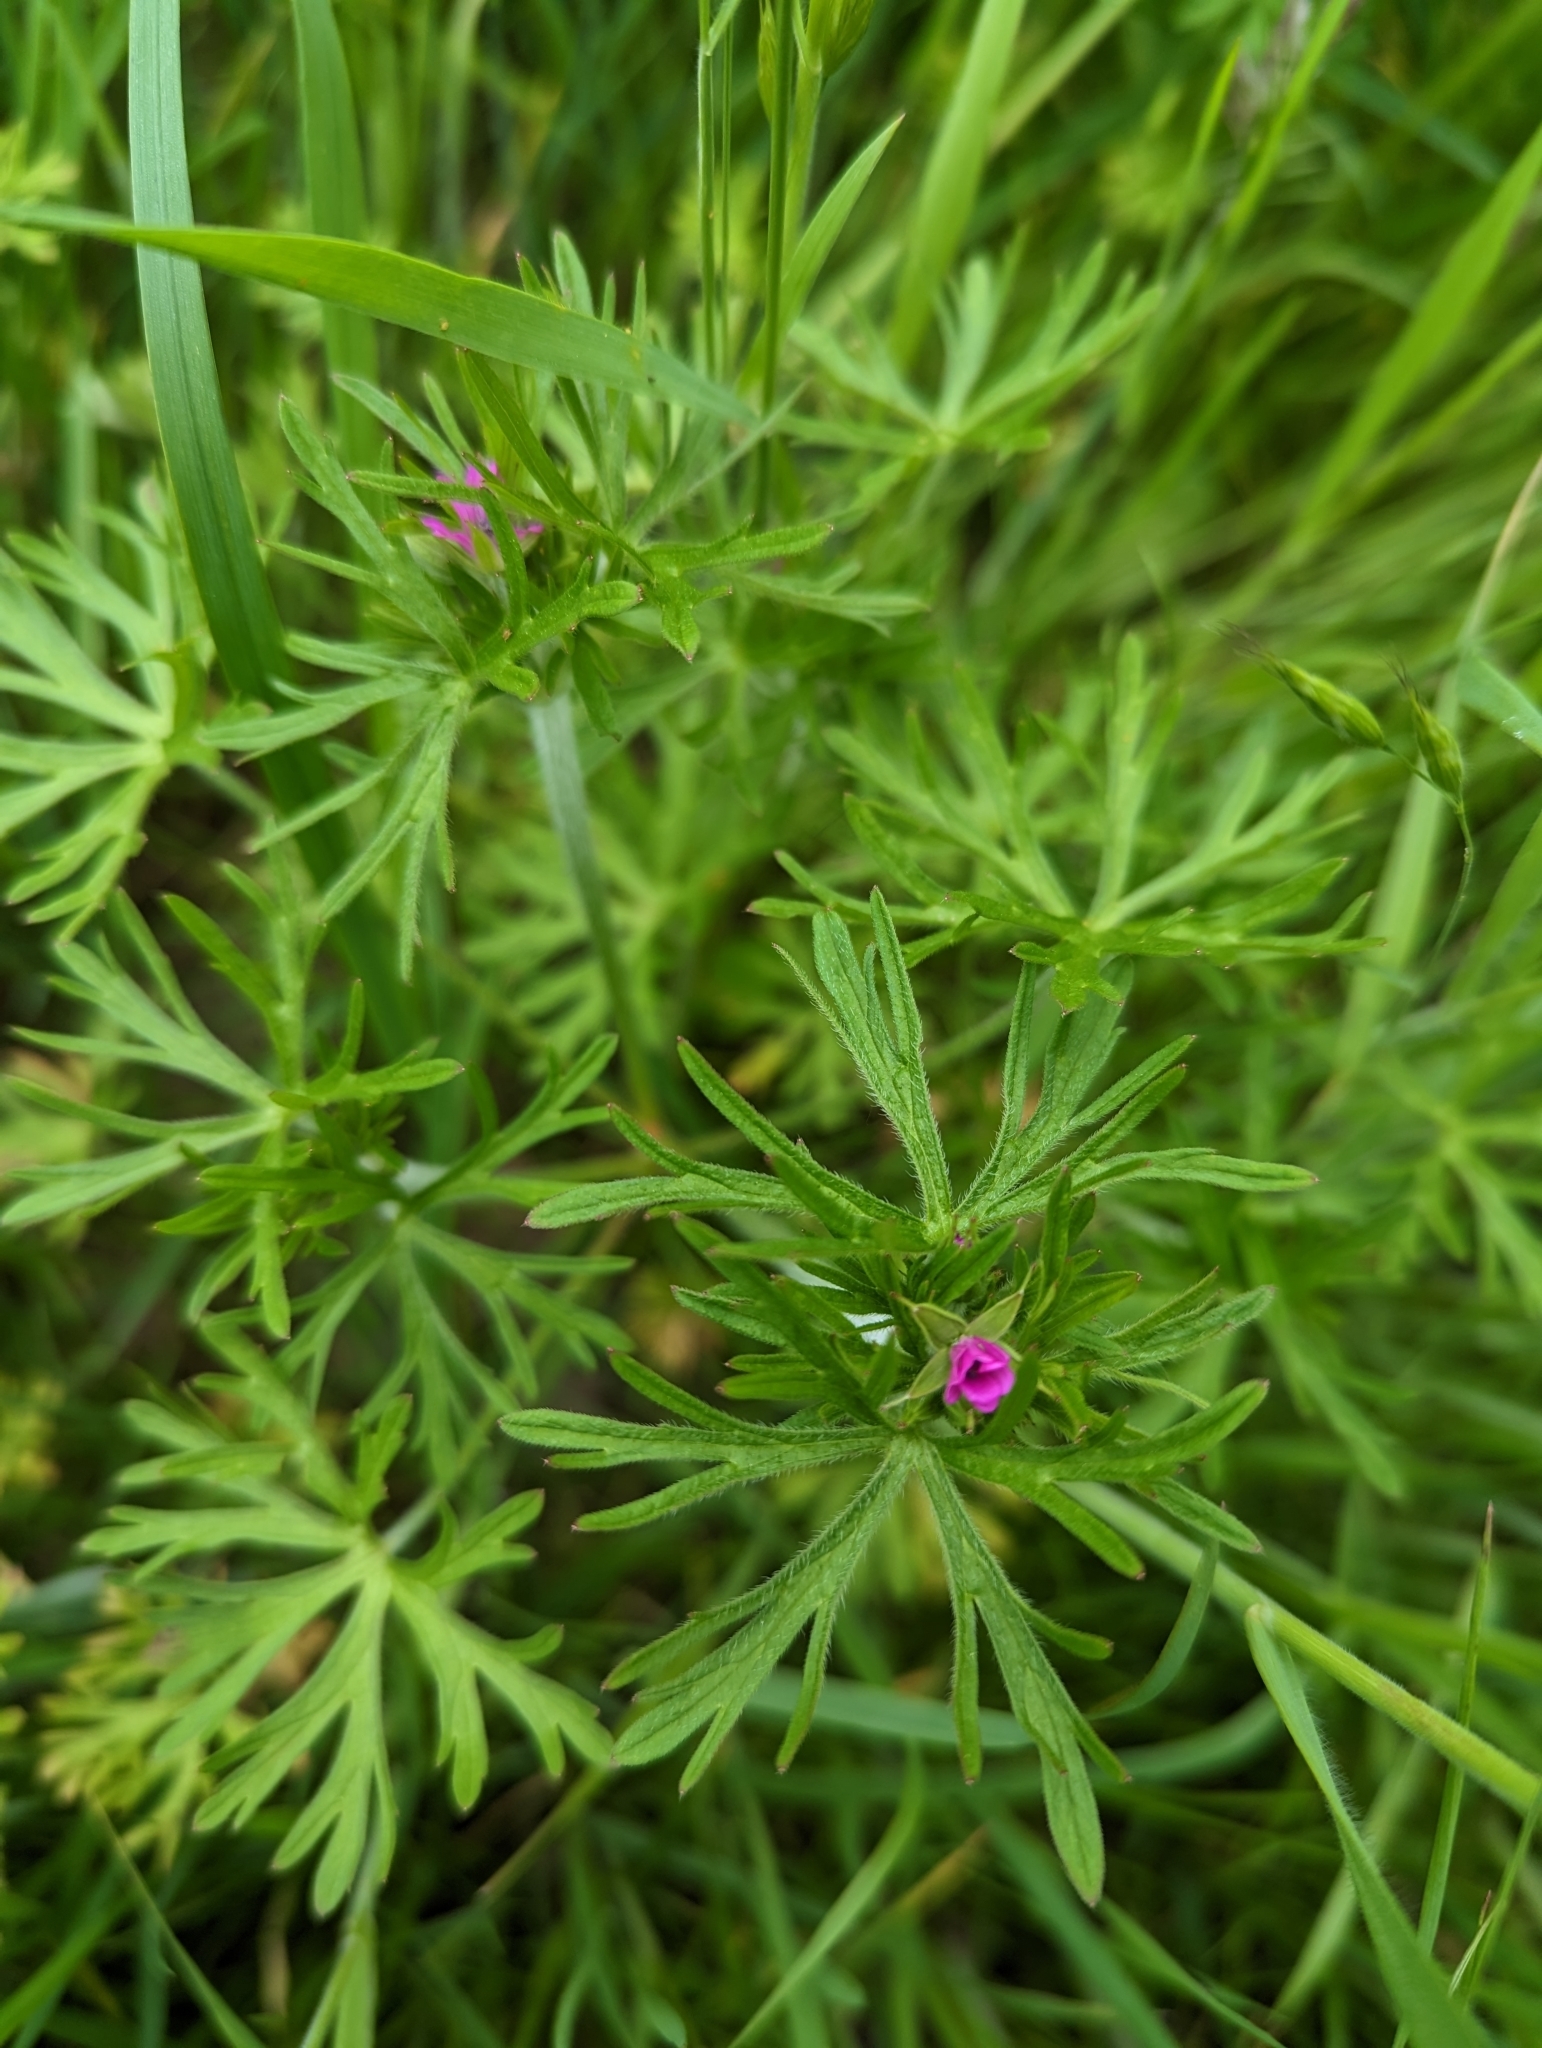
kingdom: Plantae
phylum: Tracheophyta
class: Magnoliopsida
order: Geraniales
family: Geraniaceae
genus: Geranium
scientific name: Geranium dissectum
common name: Cut-leaved crane's-bill
